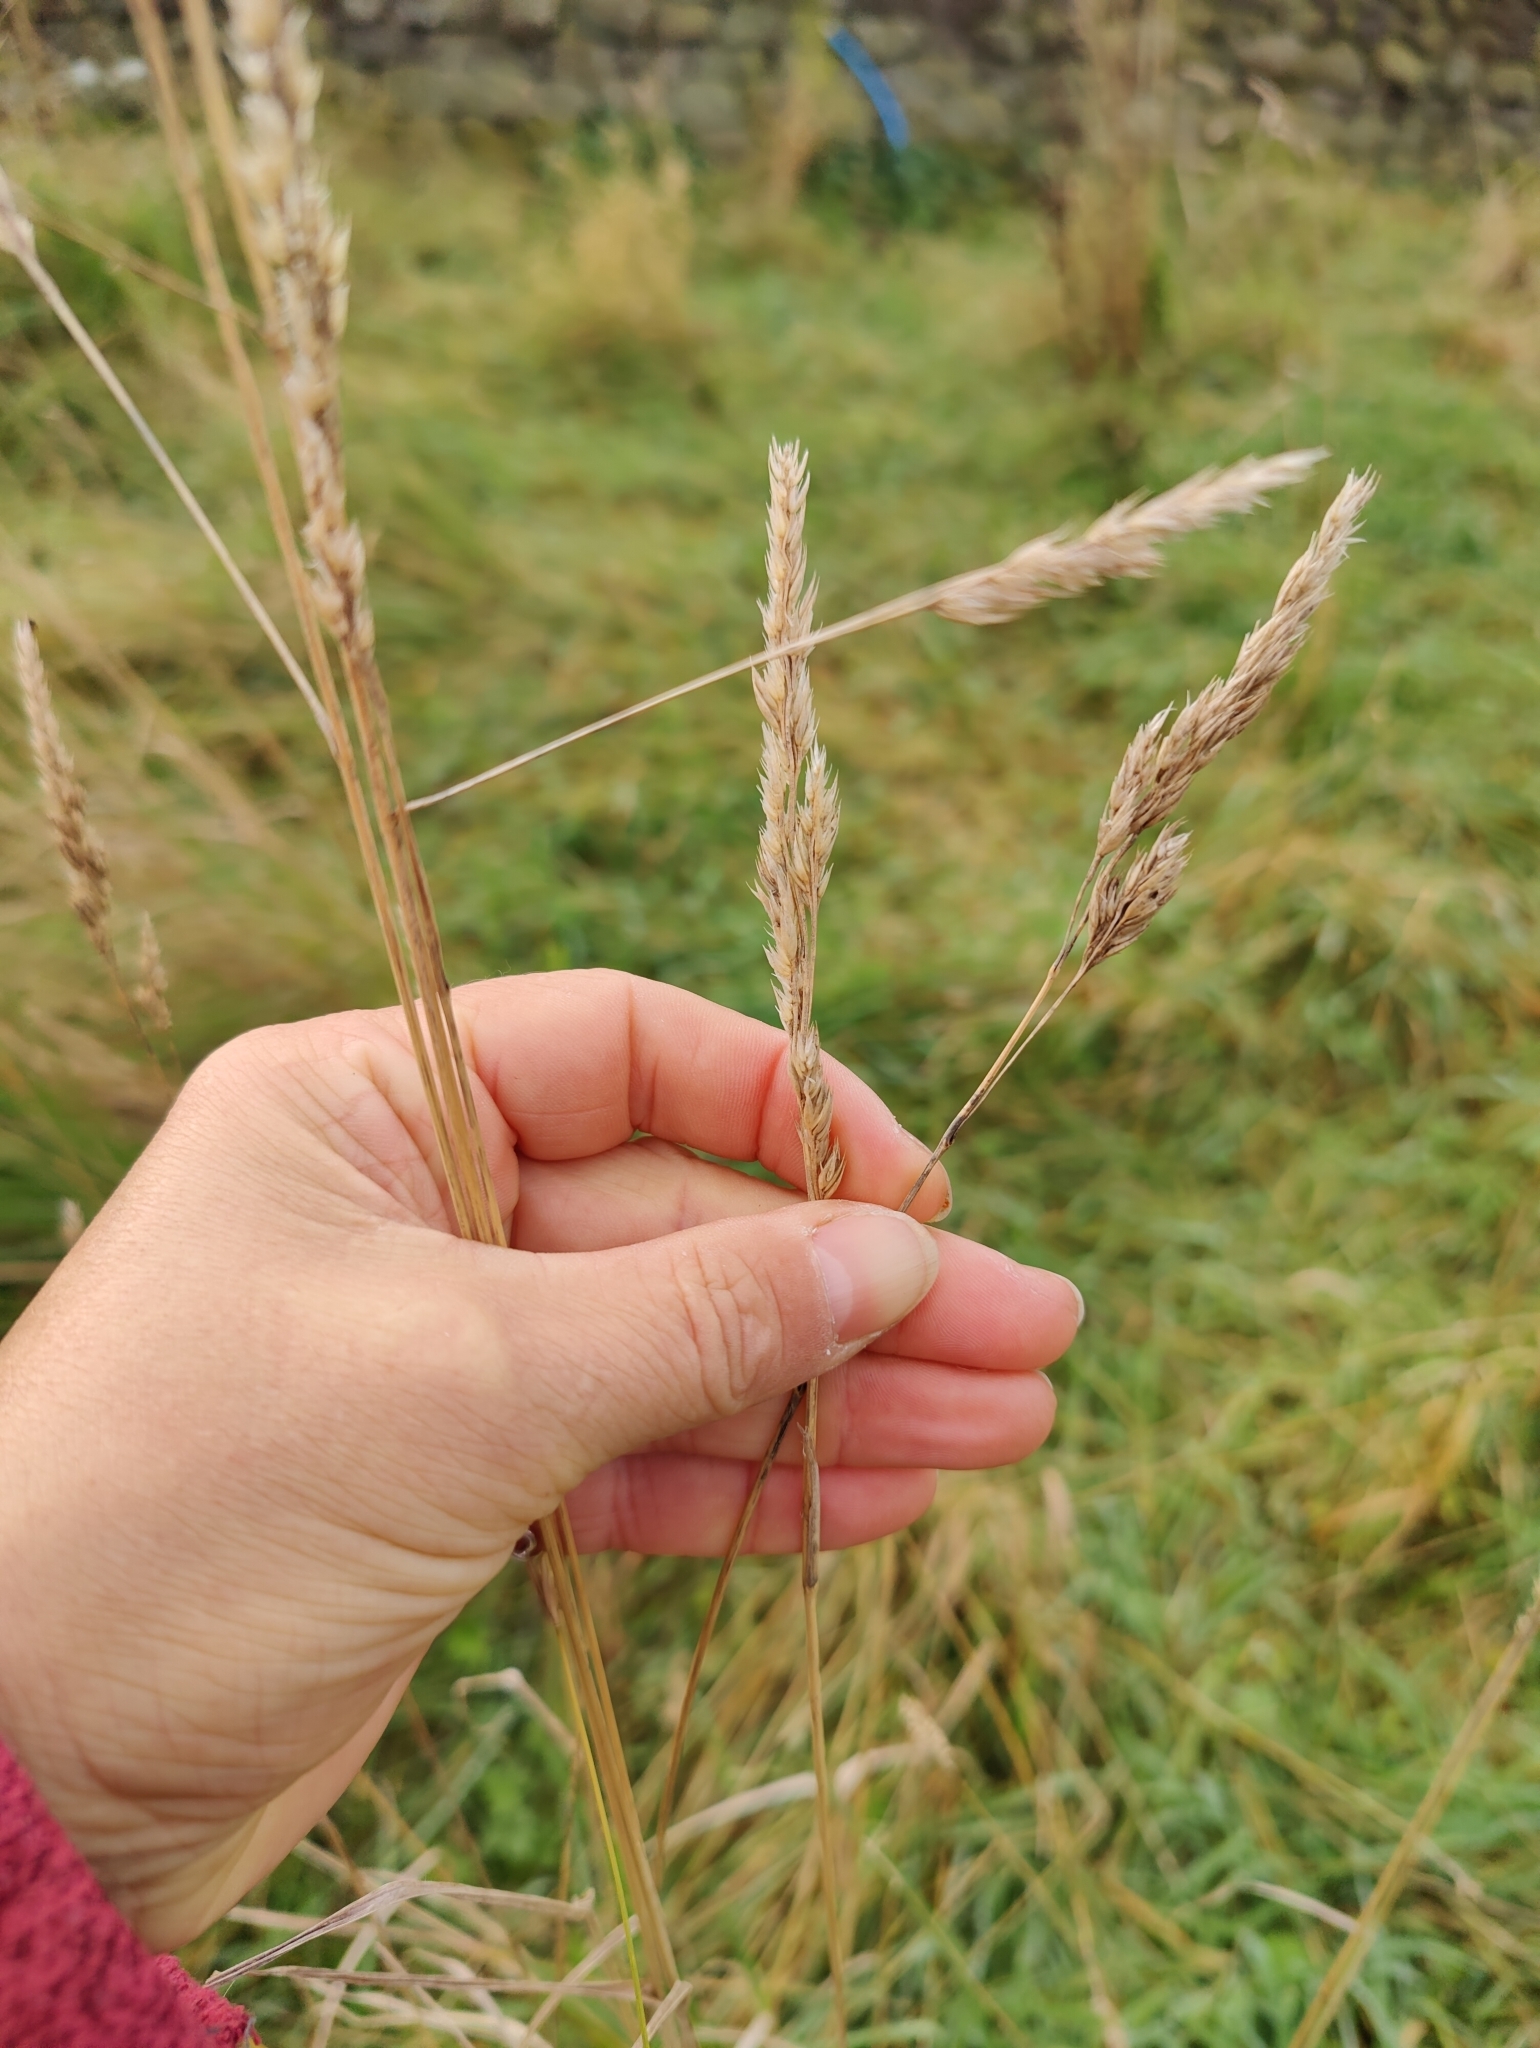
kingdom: Plantae
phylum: Tracheophyta
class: Liliopsida
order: Poales
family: Poaceae
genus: Dactylis
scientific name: Dactylis glomerata
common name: Orchardgrass
